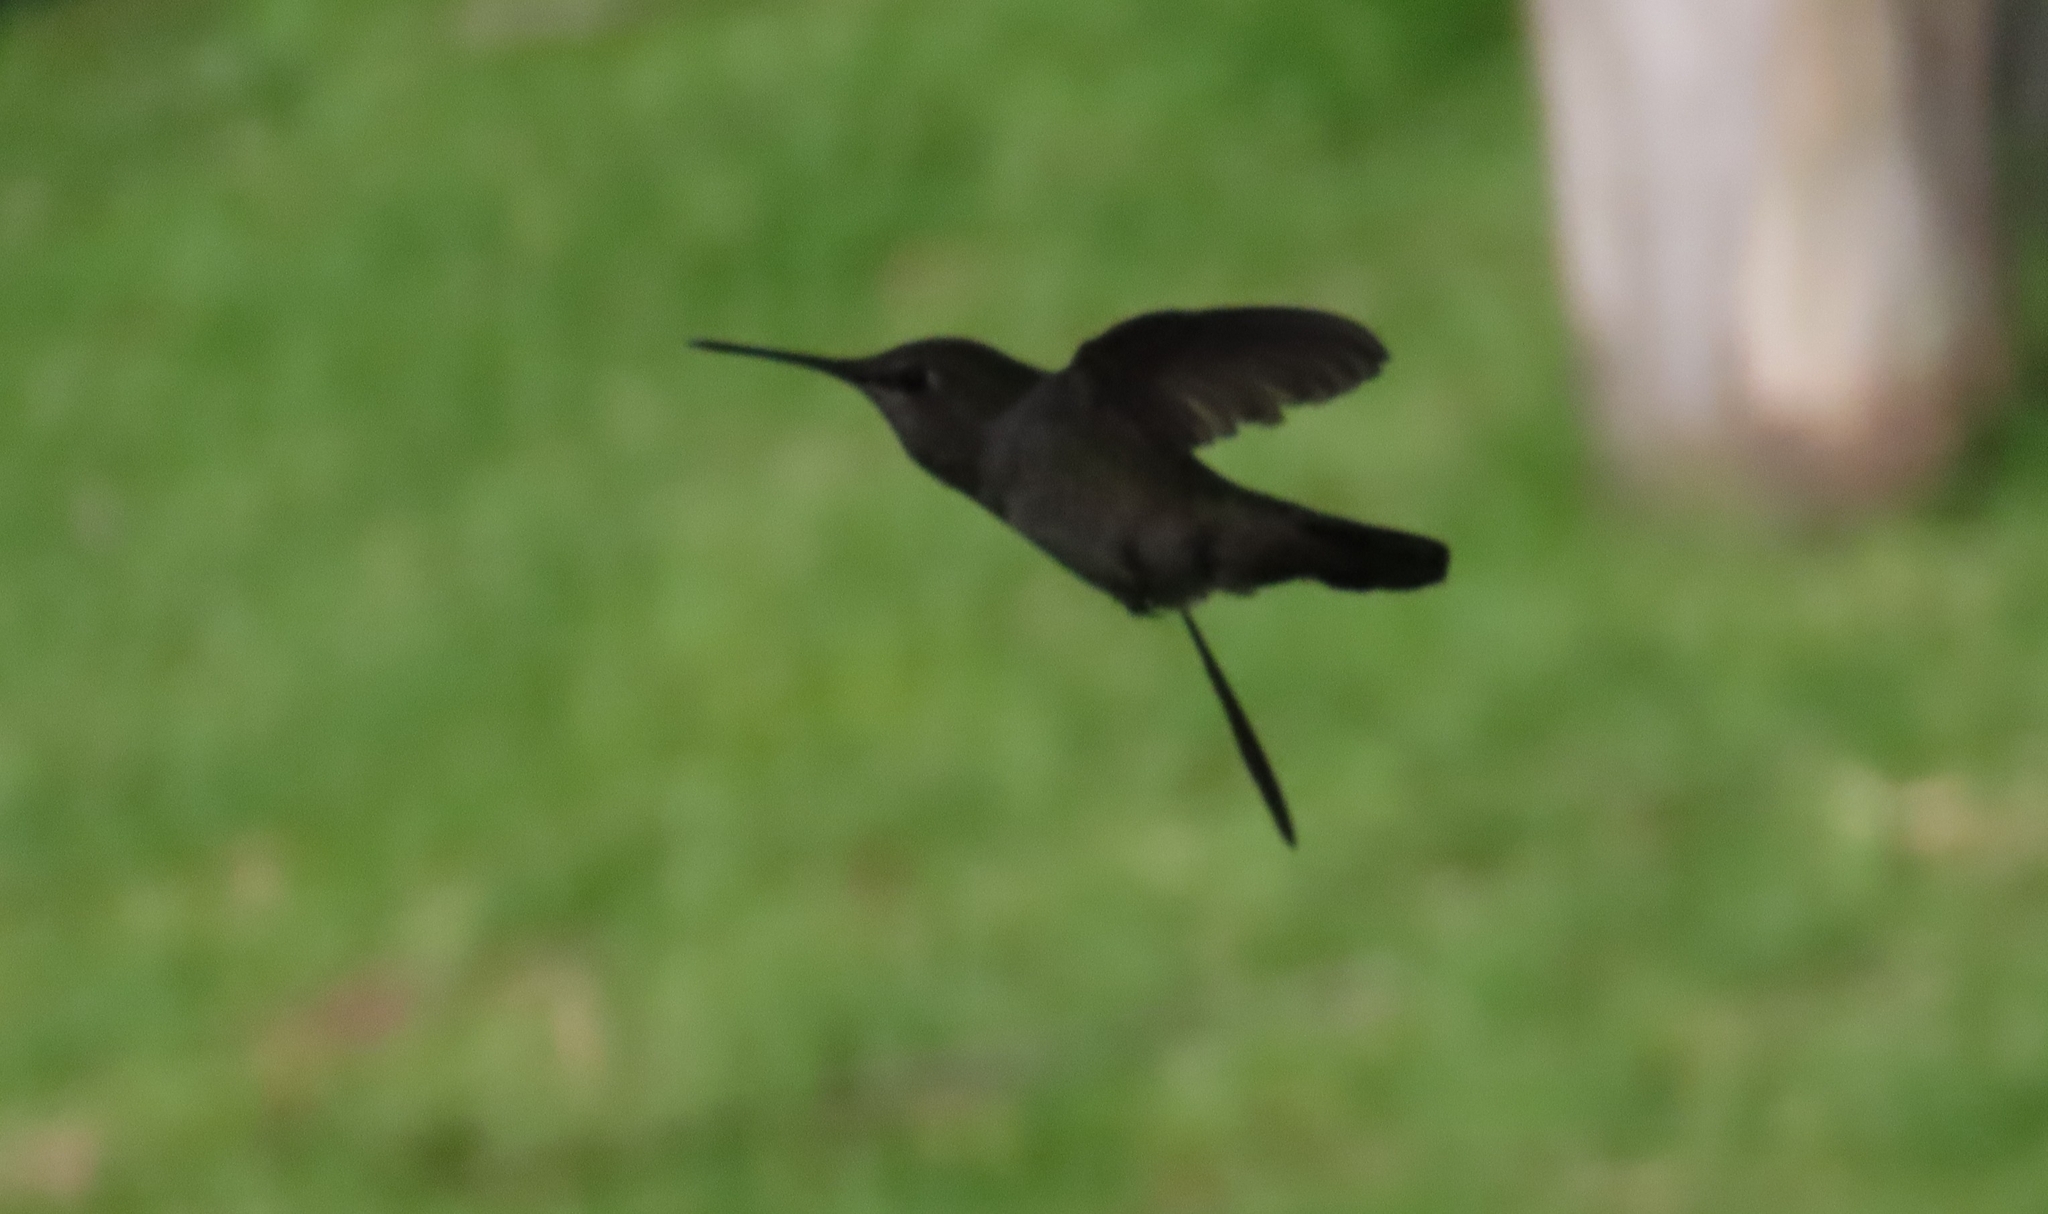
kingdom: Animalia
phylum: Chordata
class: Aves
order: Apodiformes
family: Trochilidae
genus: Calypte
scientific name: Calypte anna
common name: Anna's hummingbird
